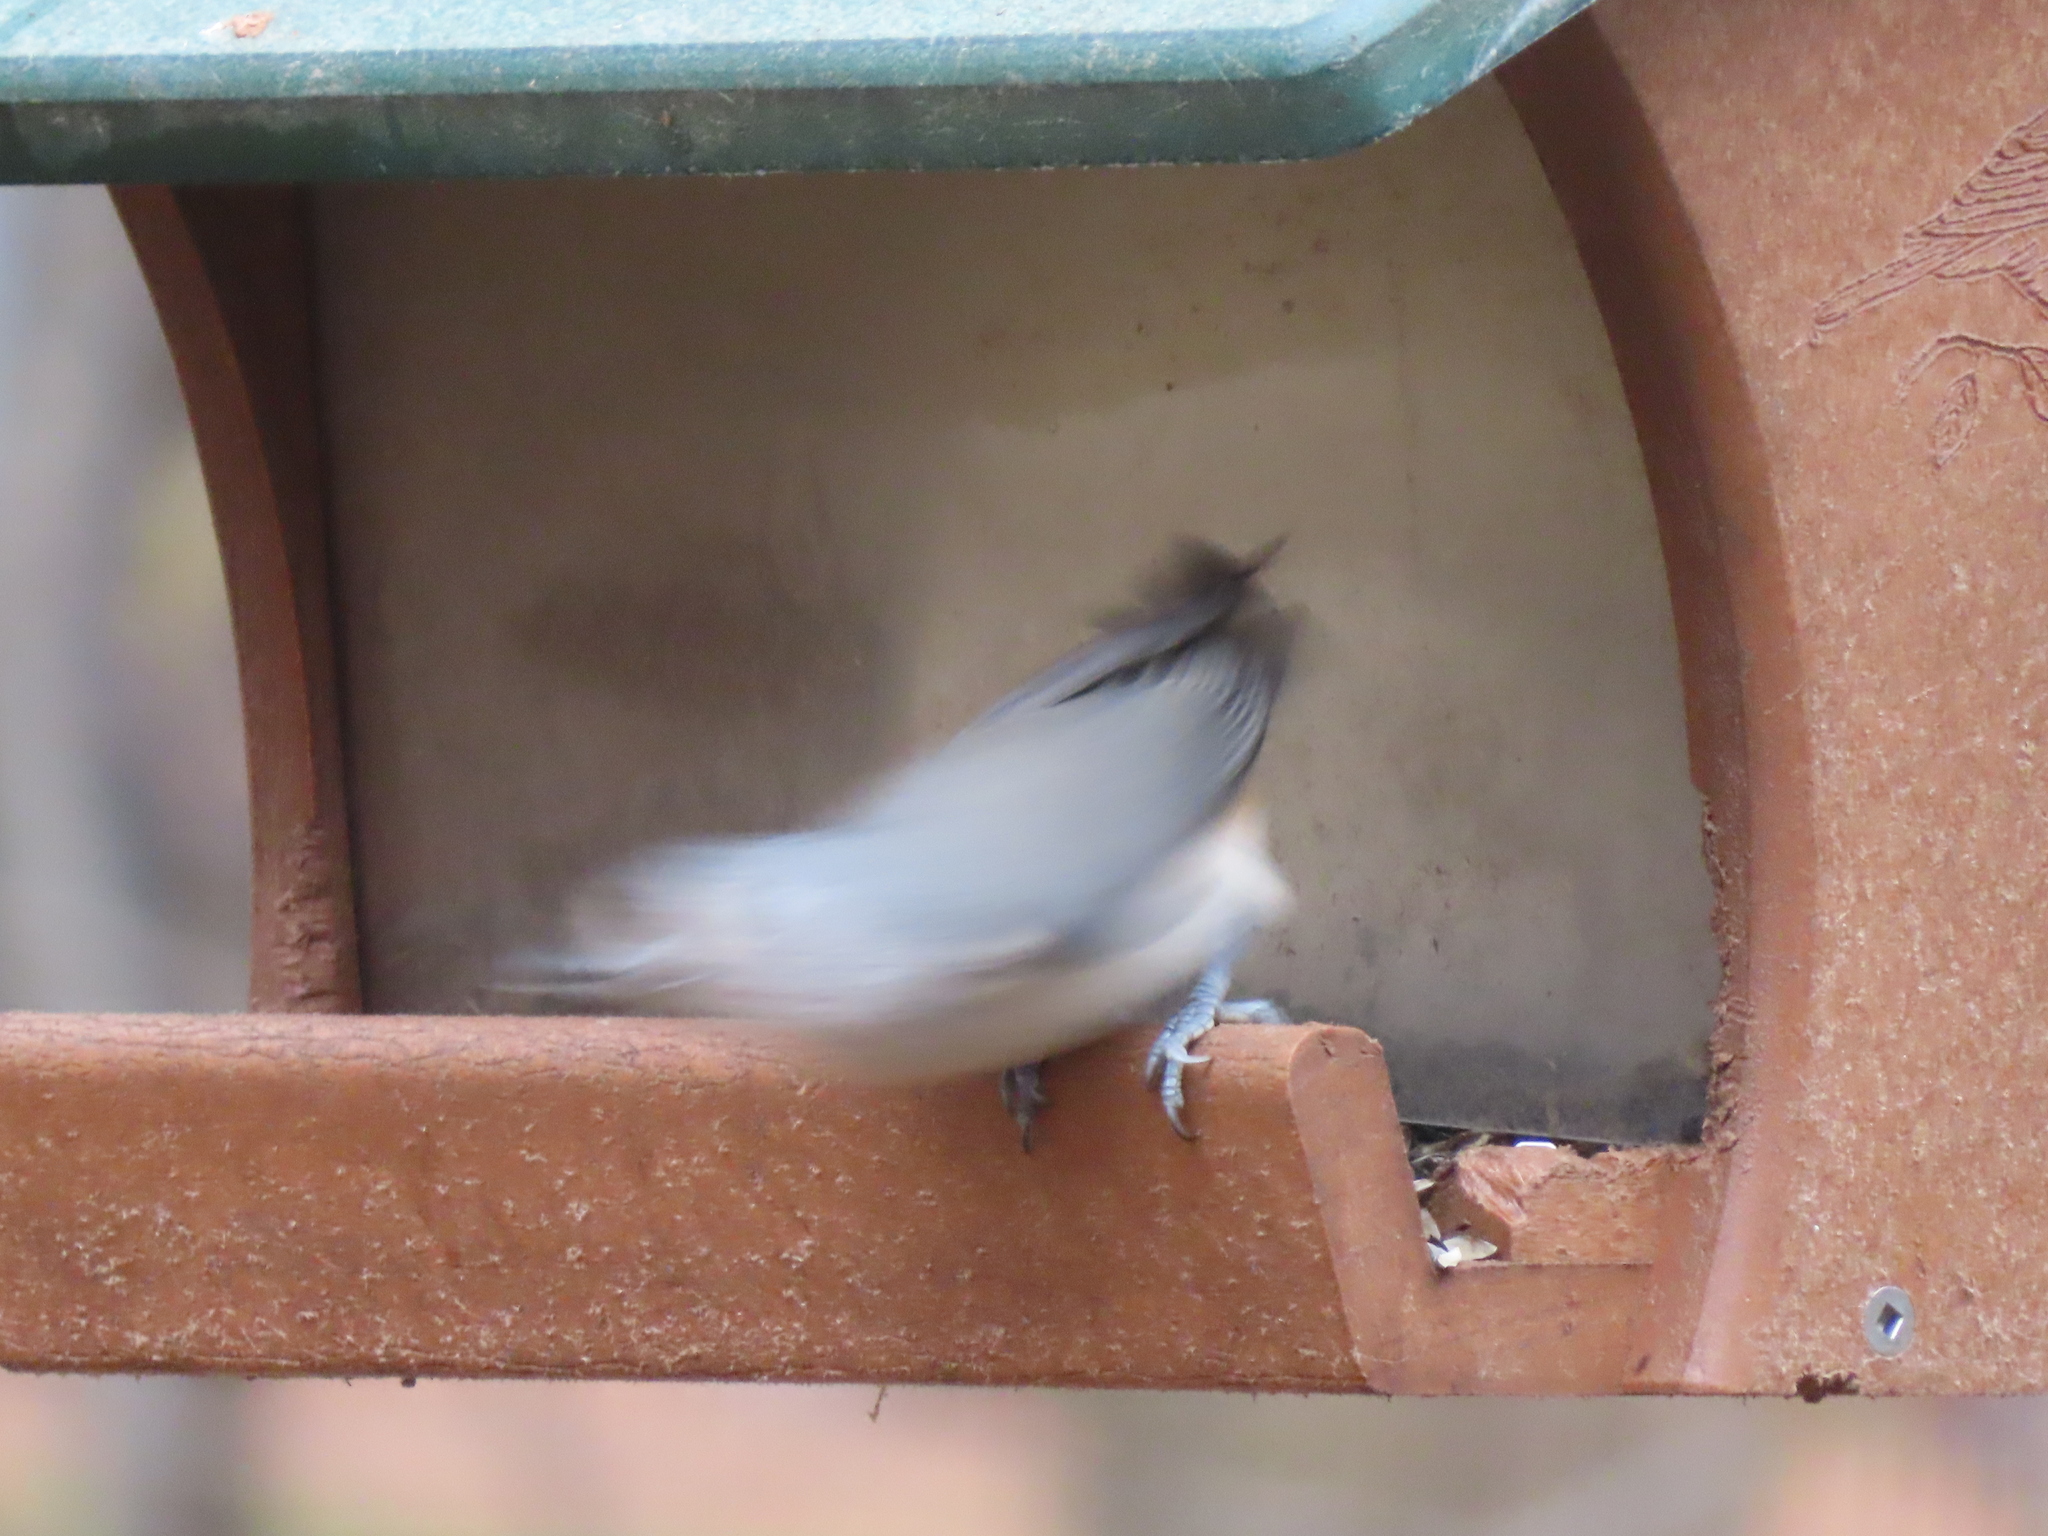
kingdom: Animalia
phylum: Chordata
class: Aves
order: Passeriformes
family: Paridae
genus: Baeolophus
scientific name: Baeolophus bicolor
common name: Tufted titmouse
